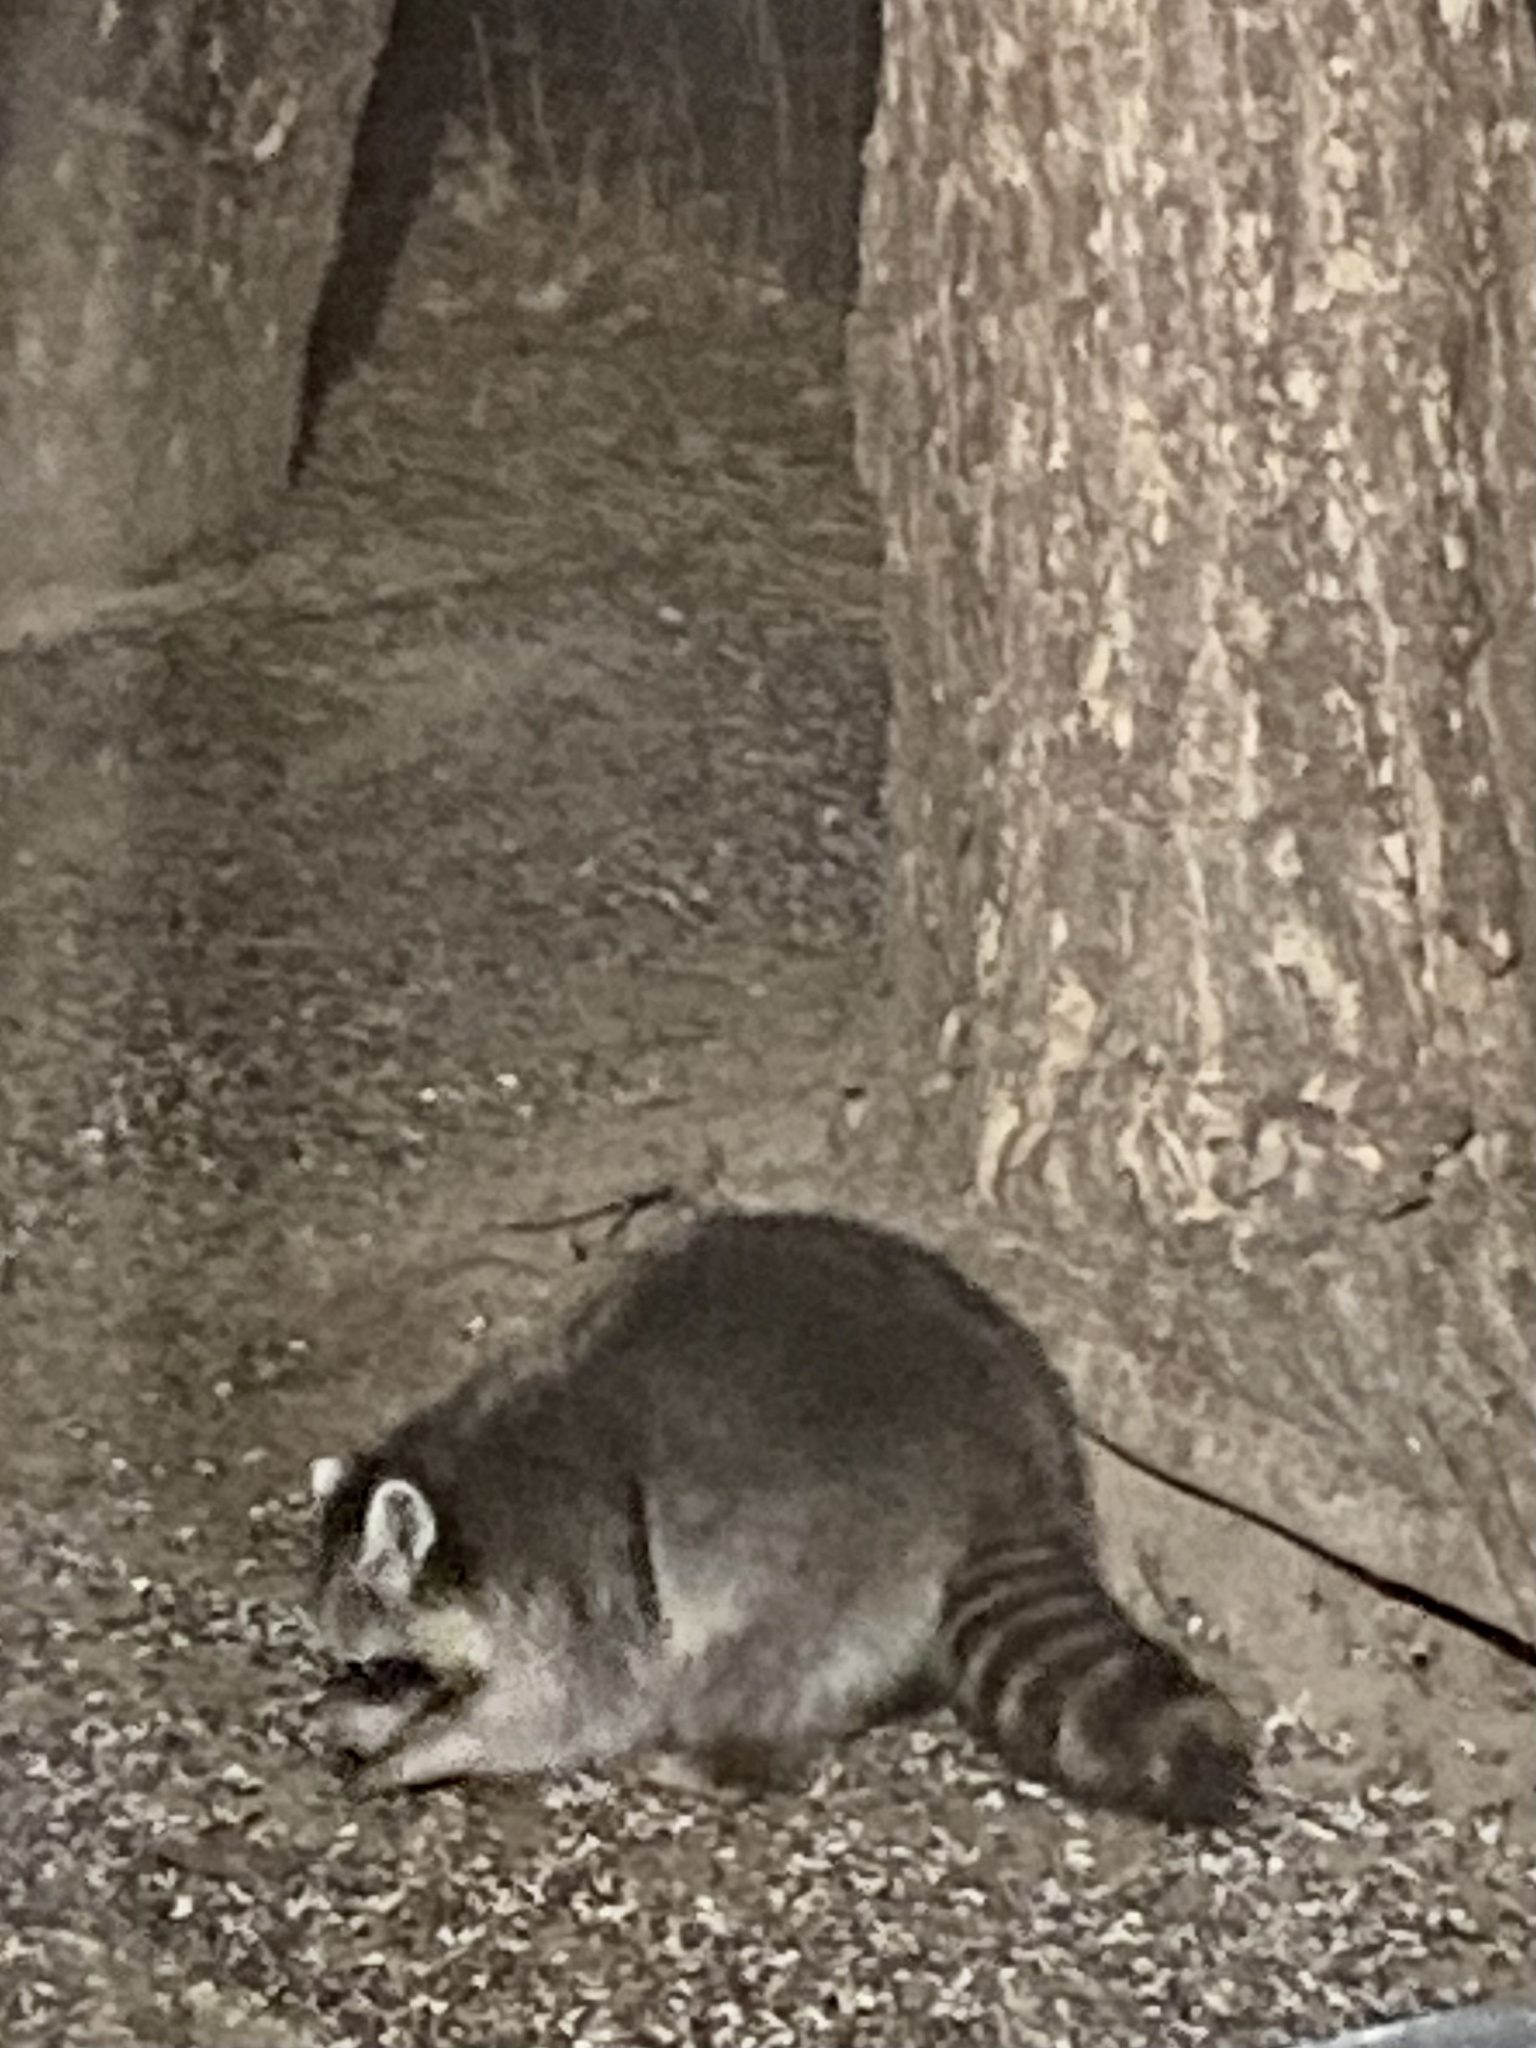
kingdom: Animalia
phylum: Chordata
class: Mammalia
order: Carnivora
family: Procyonidae
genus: Procyon
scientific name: Procyon lotor
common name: Raccoon
